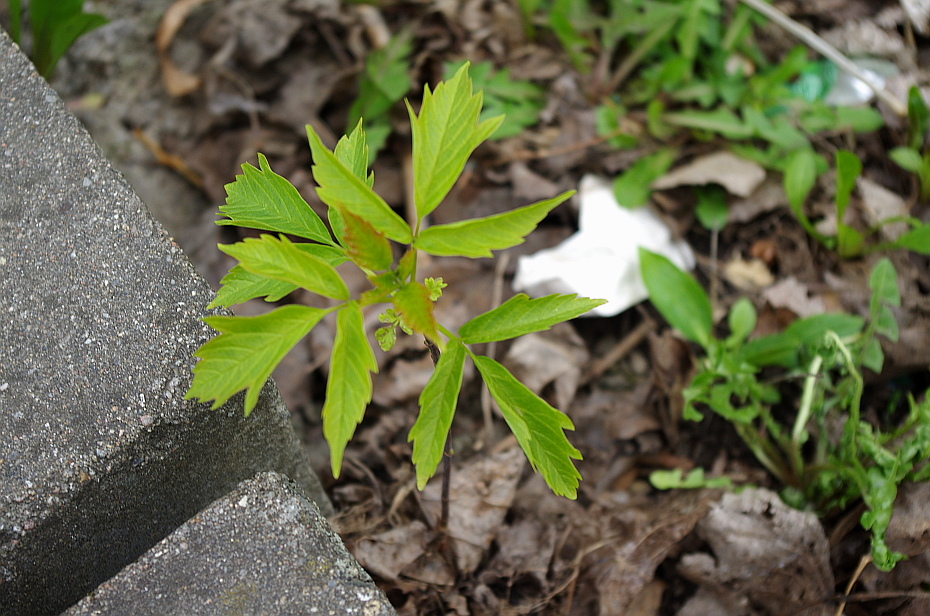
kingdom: Plantae
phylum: Tracheophyta
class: Magnoliopsida
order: Sapindales
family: Sapindaceae
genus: Acer
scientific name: Acer negundo
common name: Ashleaf maple
